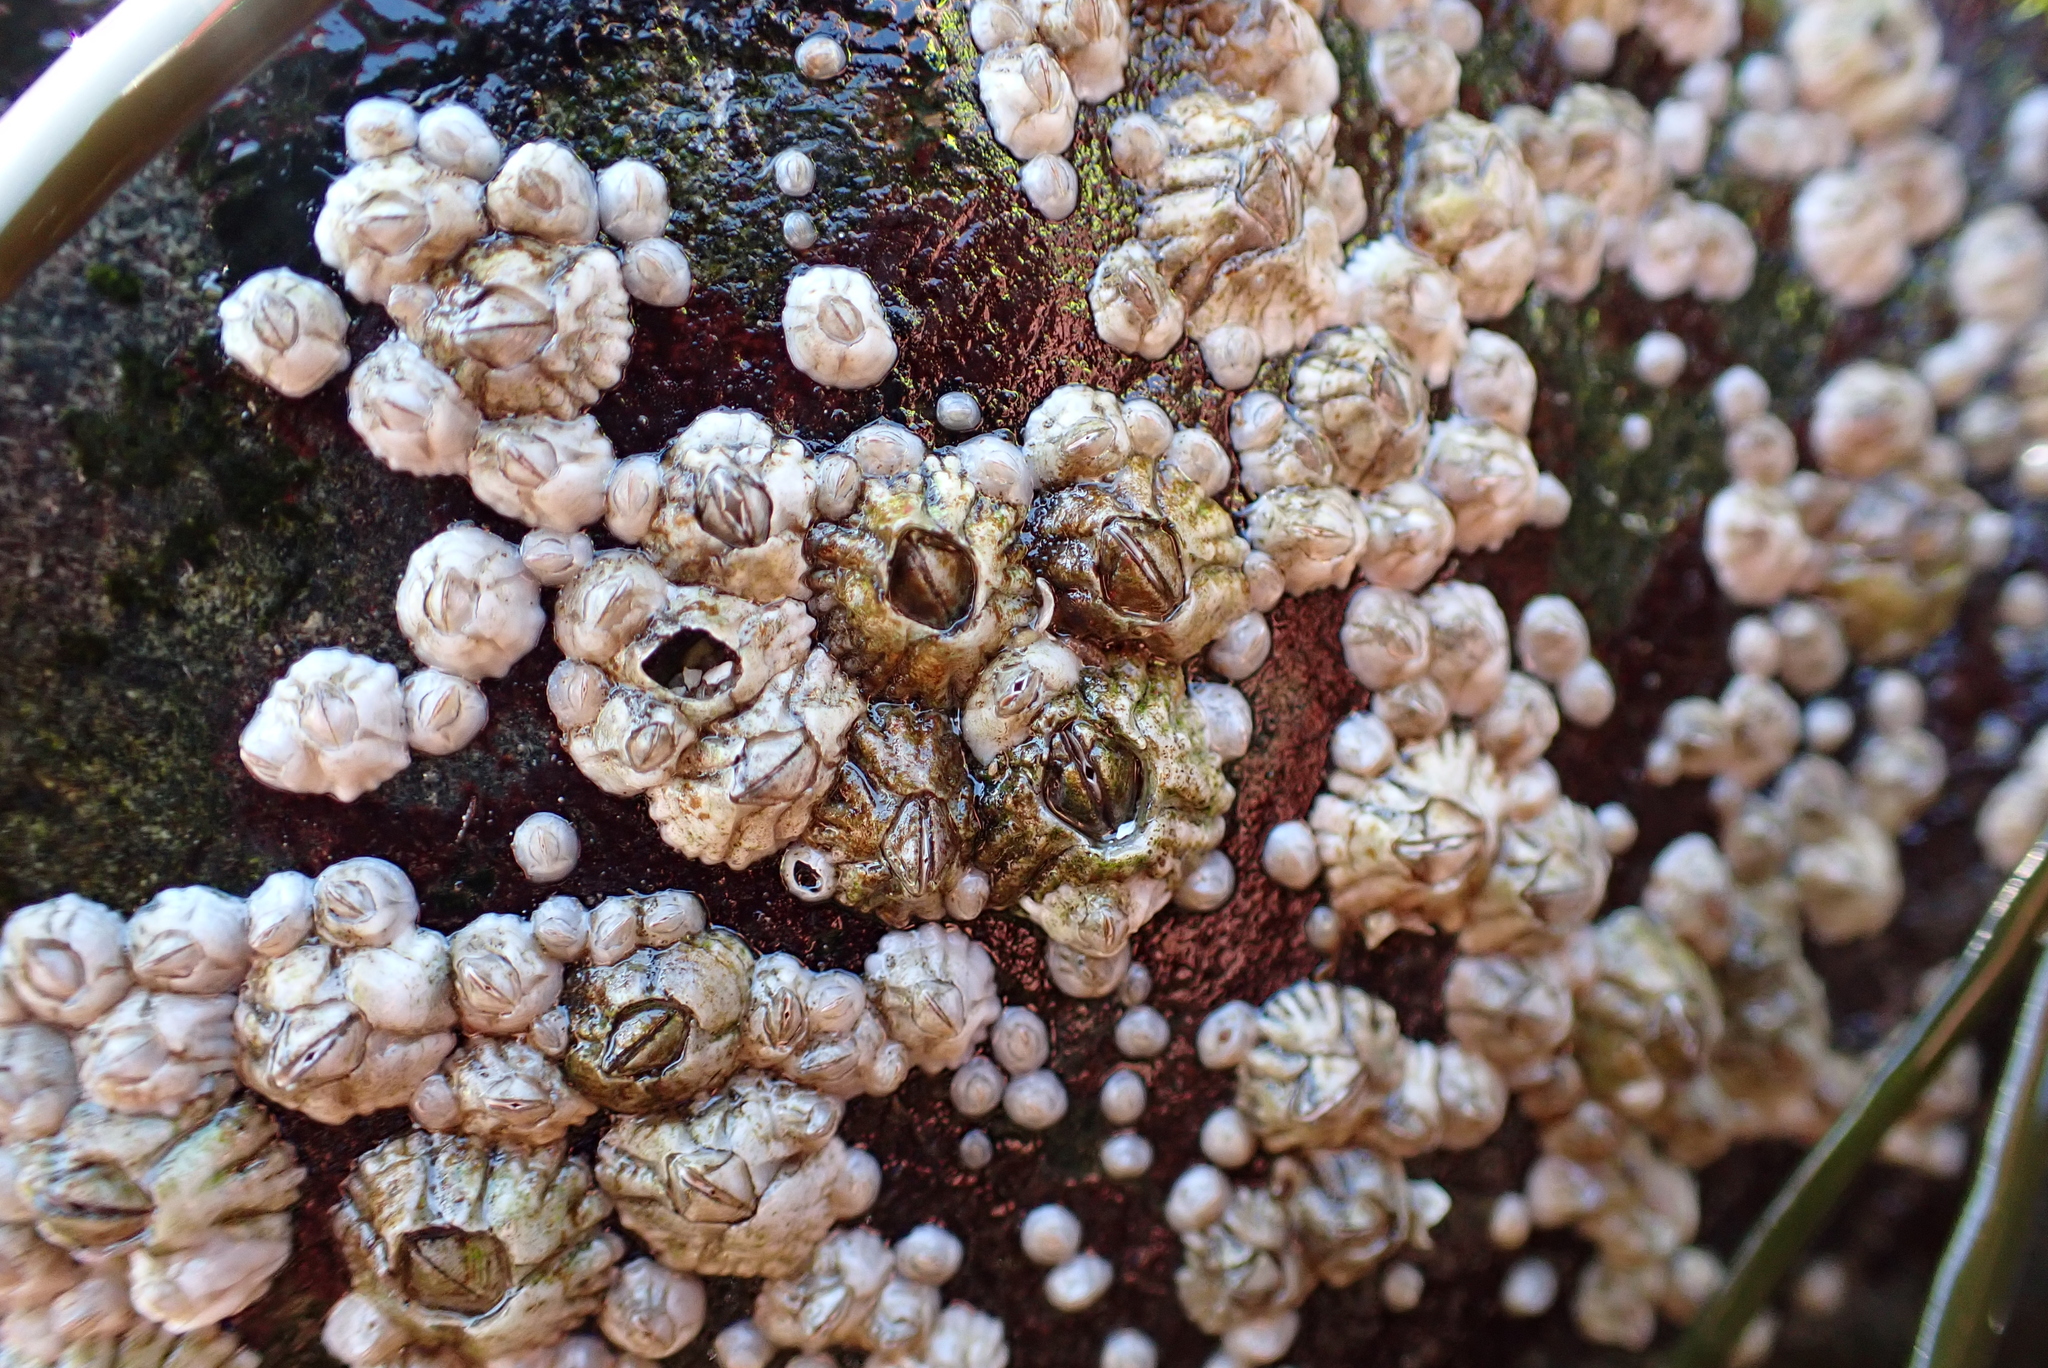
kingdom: Animalia
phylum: Arthropoda
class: Maxillopoda
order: Sessilia
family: Archaeobalanidae
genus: Semibalanus
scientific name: Semibalanus balanoides
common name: Acorn barnacle
